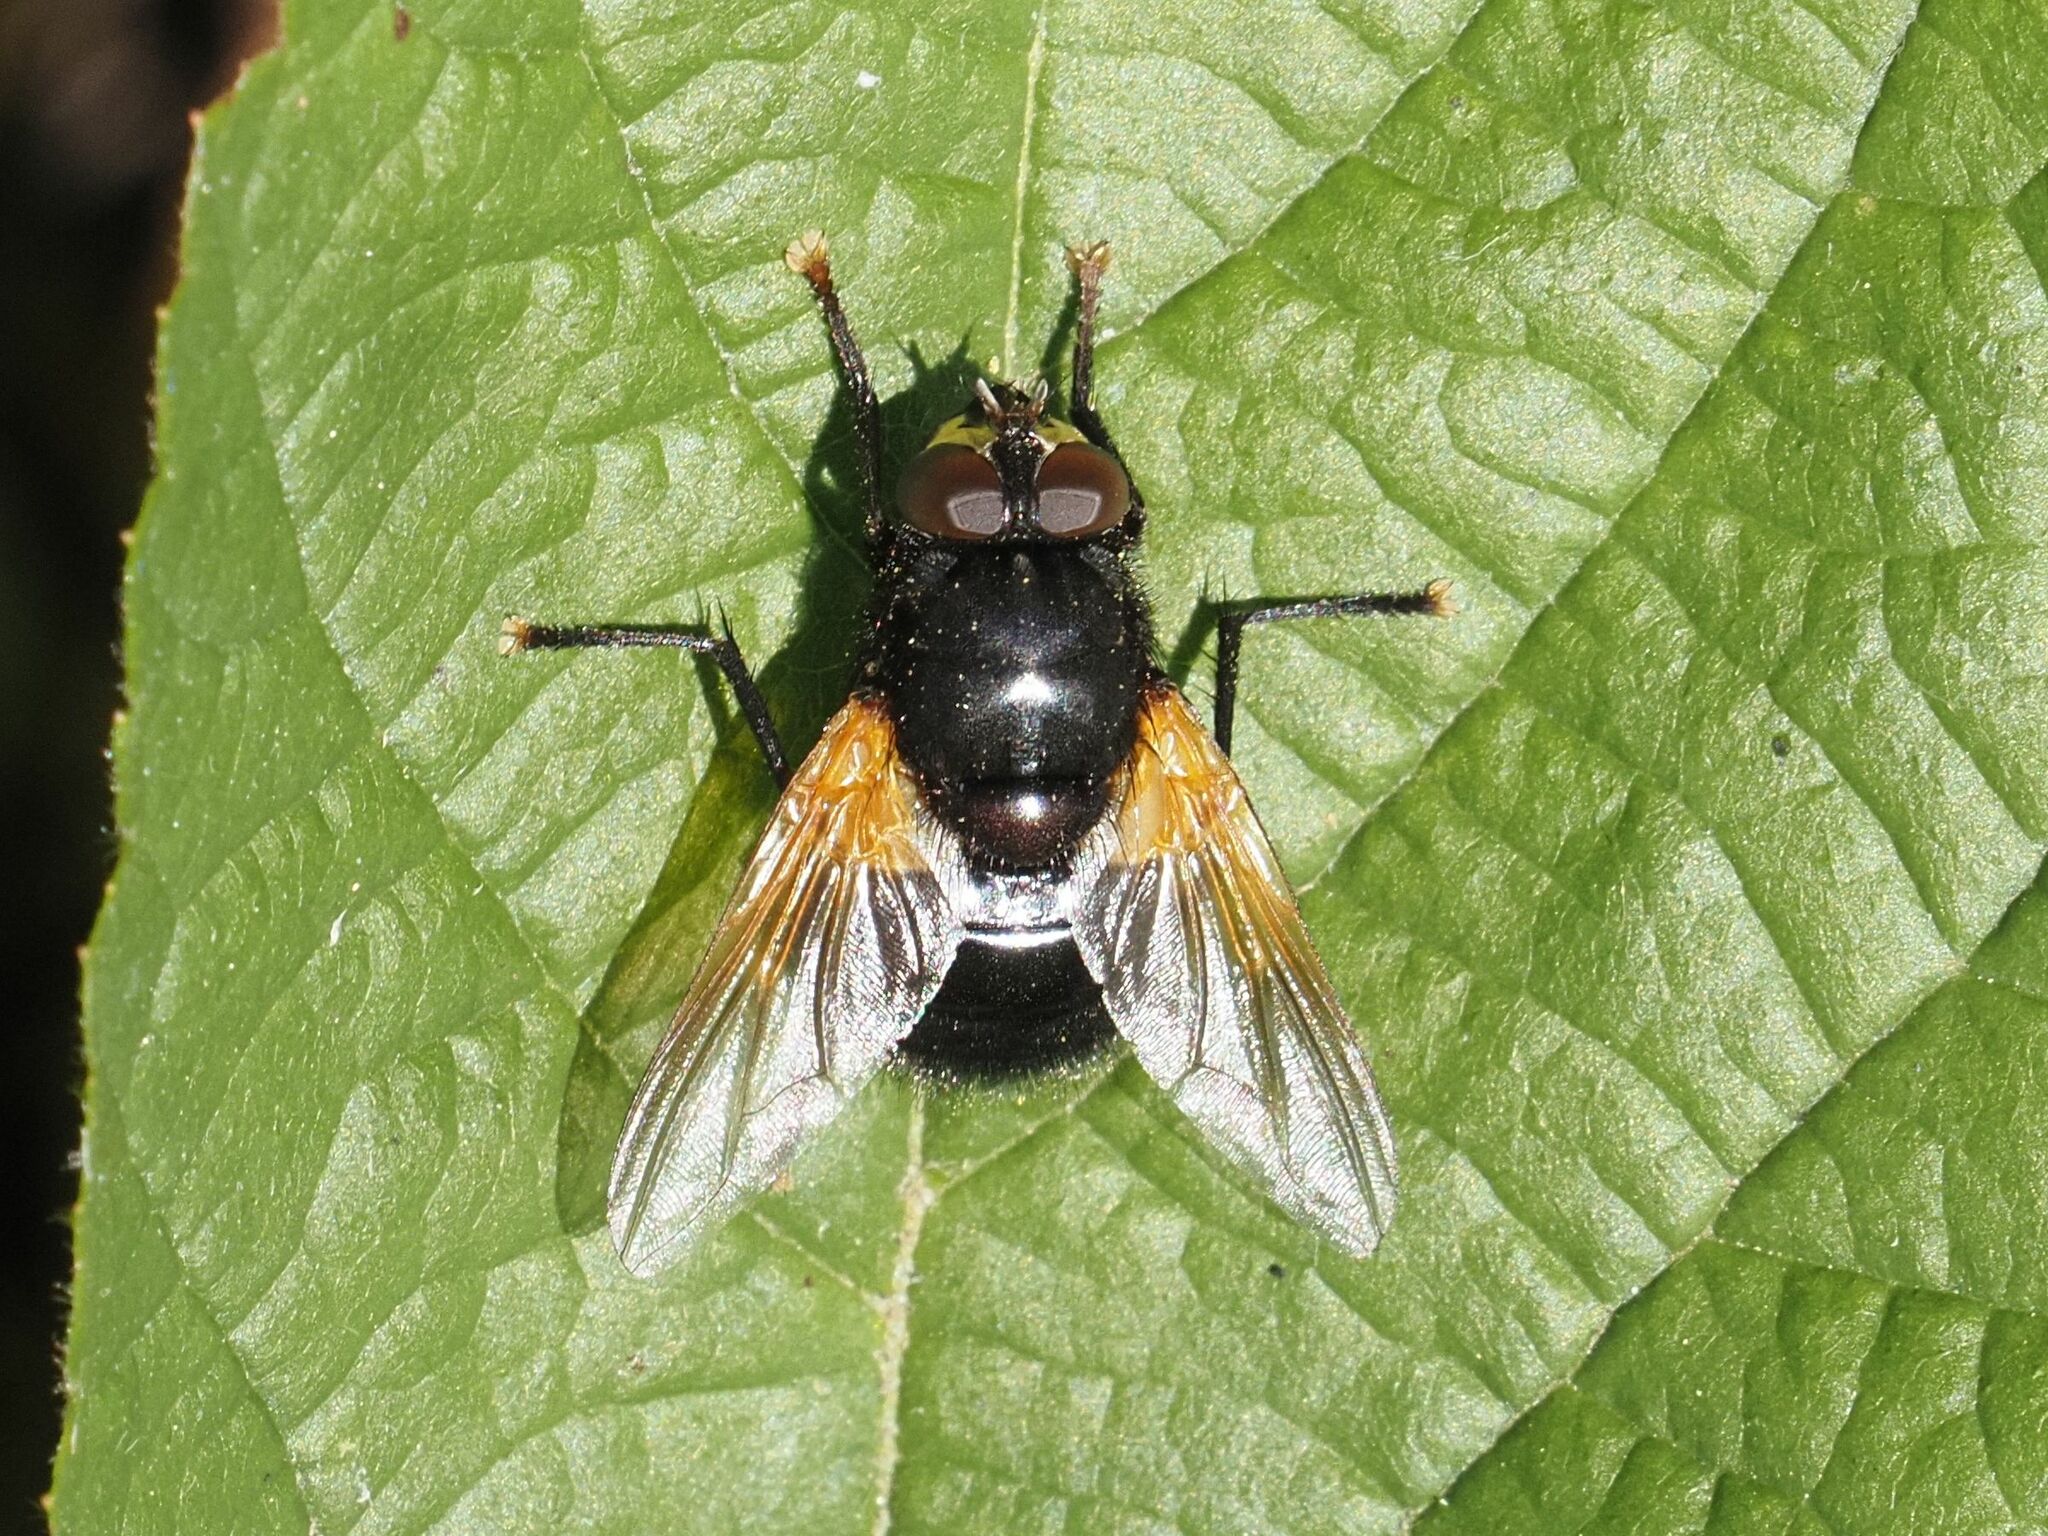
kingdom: Animalia
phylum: Arthropoda
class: Insecta
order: Diptera
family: Muscidae
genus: Mesembrina
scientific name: Mesembrina meridiana
